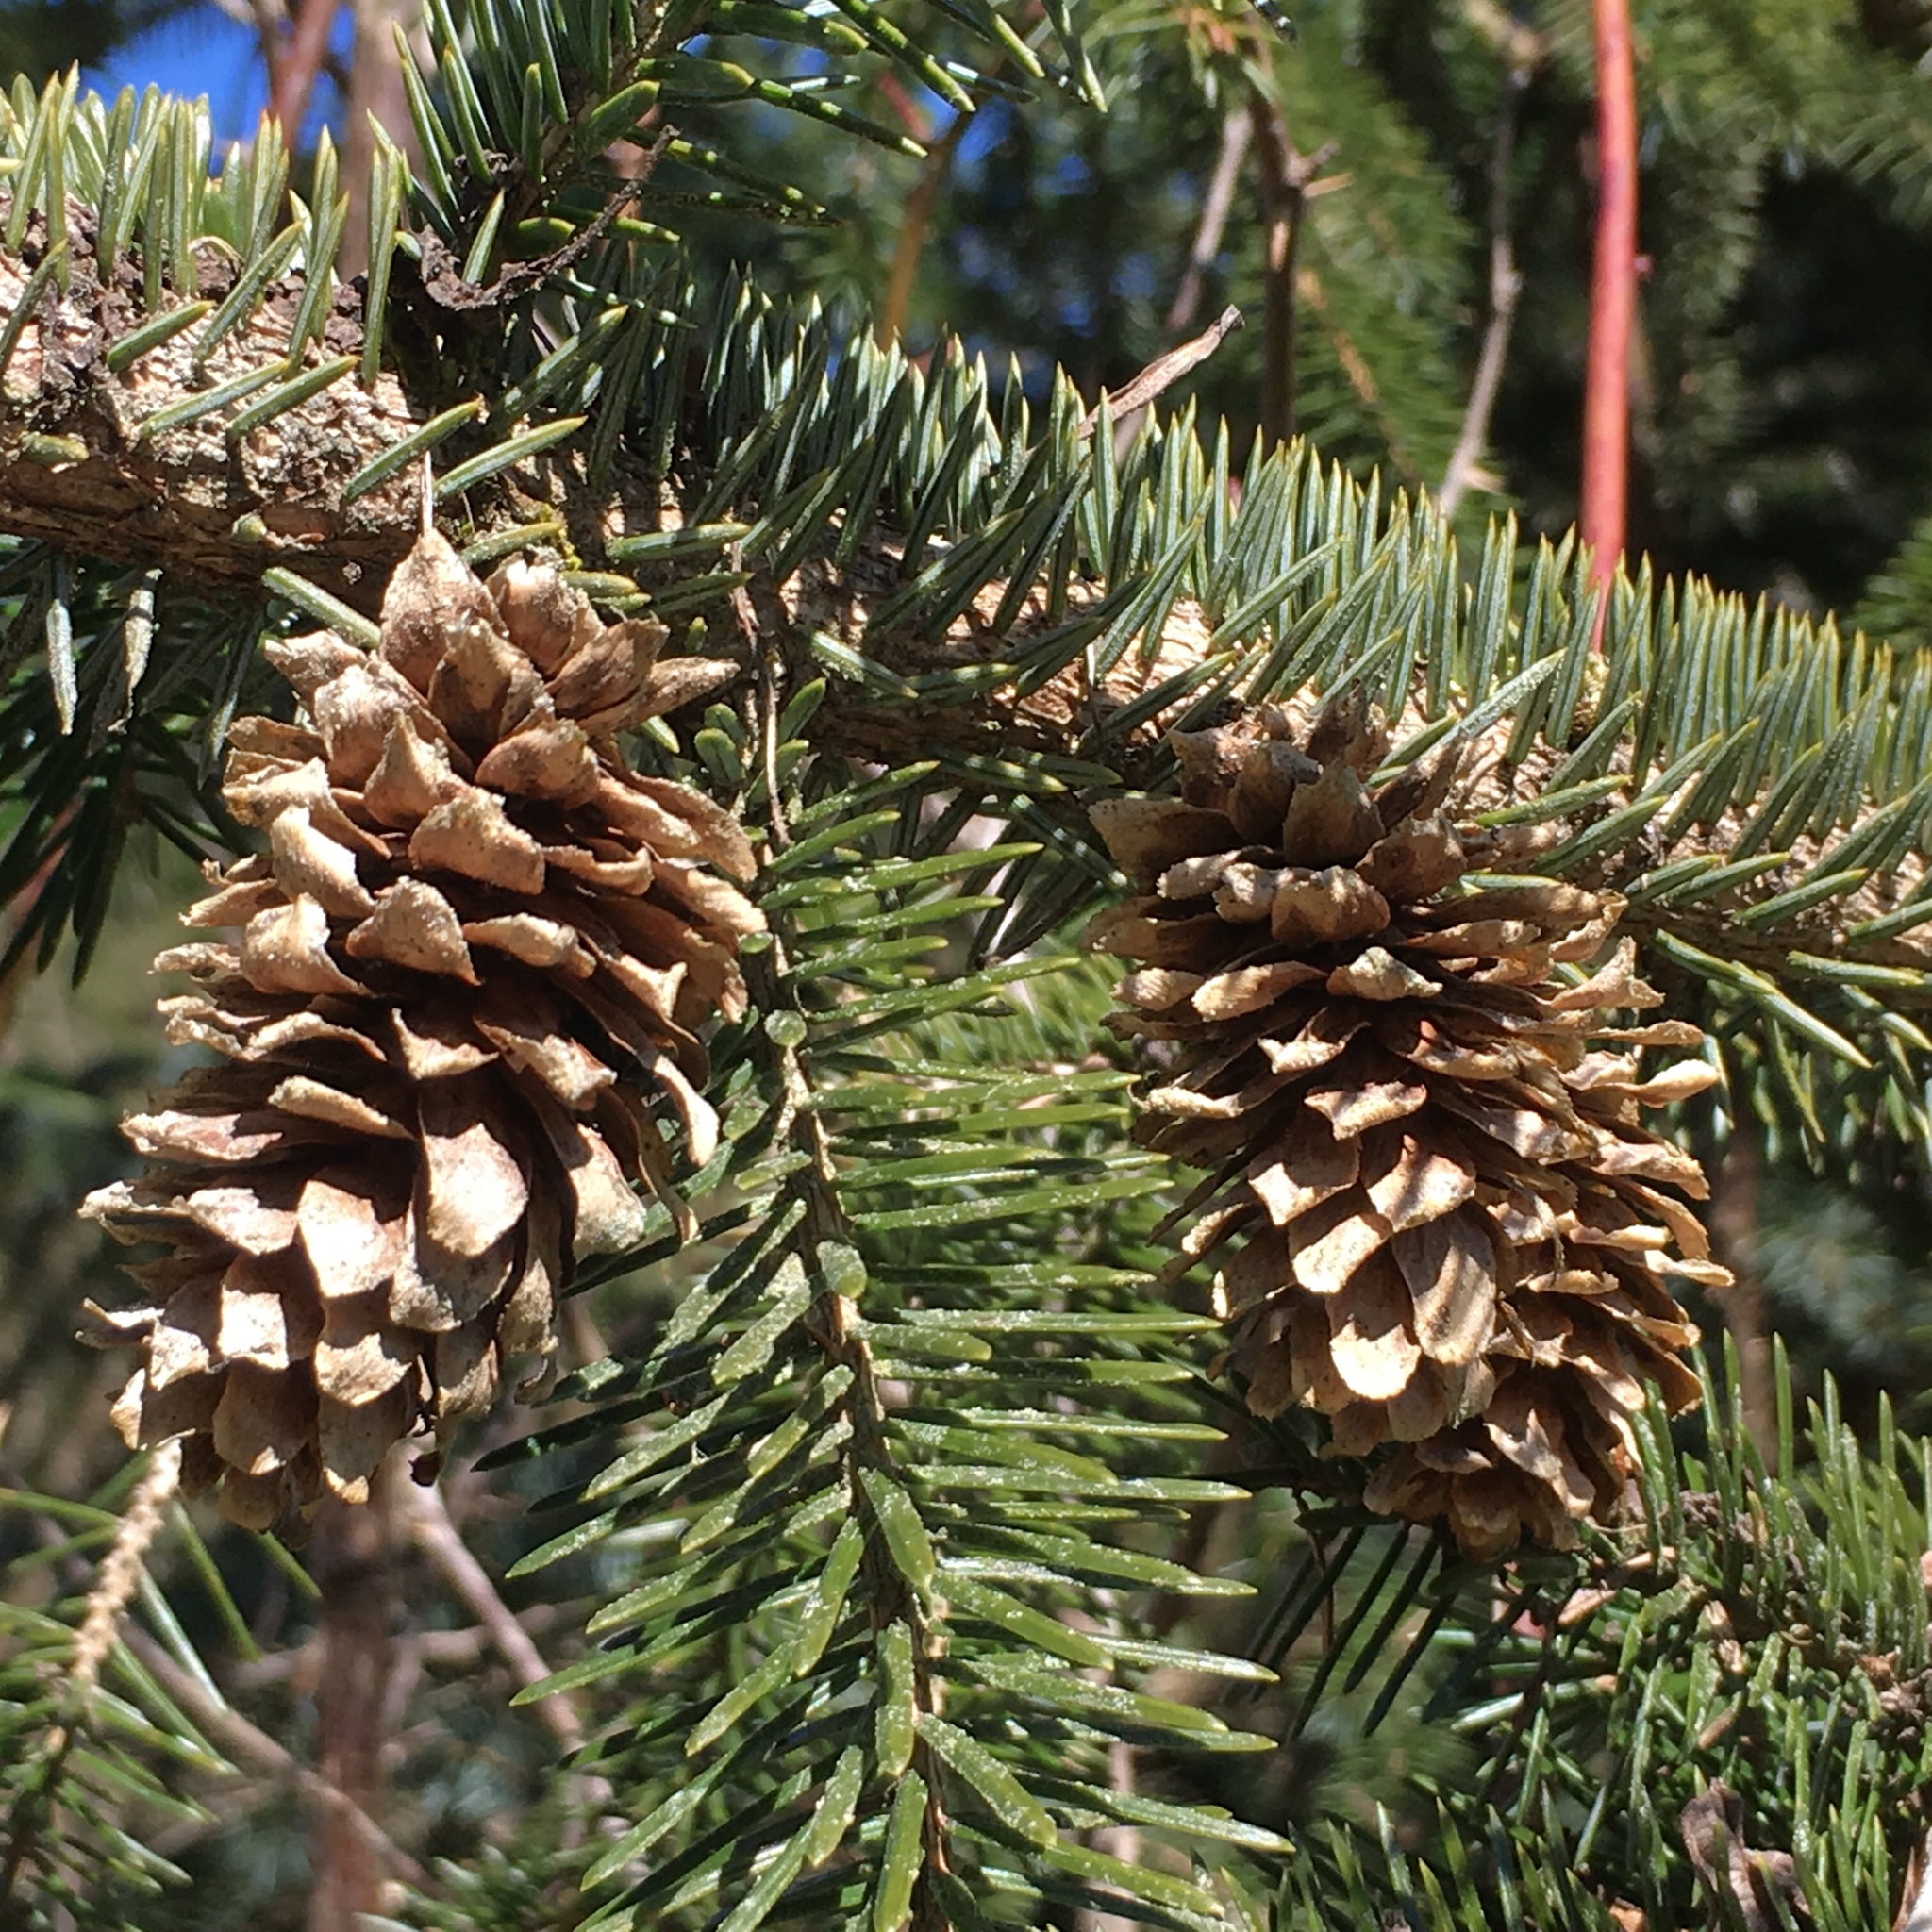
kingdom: Plantae
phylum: Tracheophyta
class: Pinopsida
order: Pinales
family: Pinaceae
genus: Picea
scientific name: Picea sitchensis
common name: Sitka spruce
